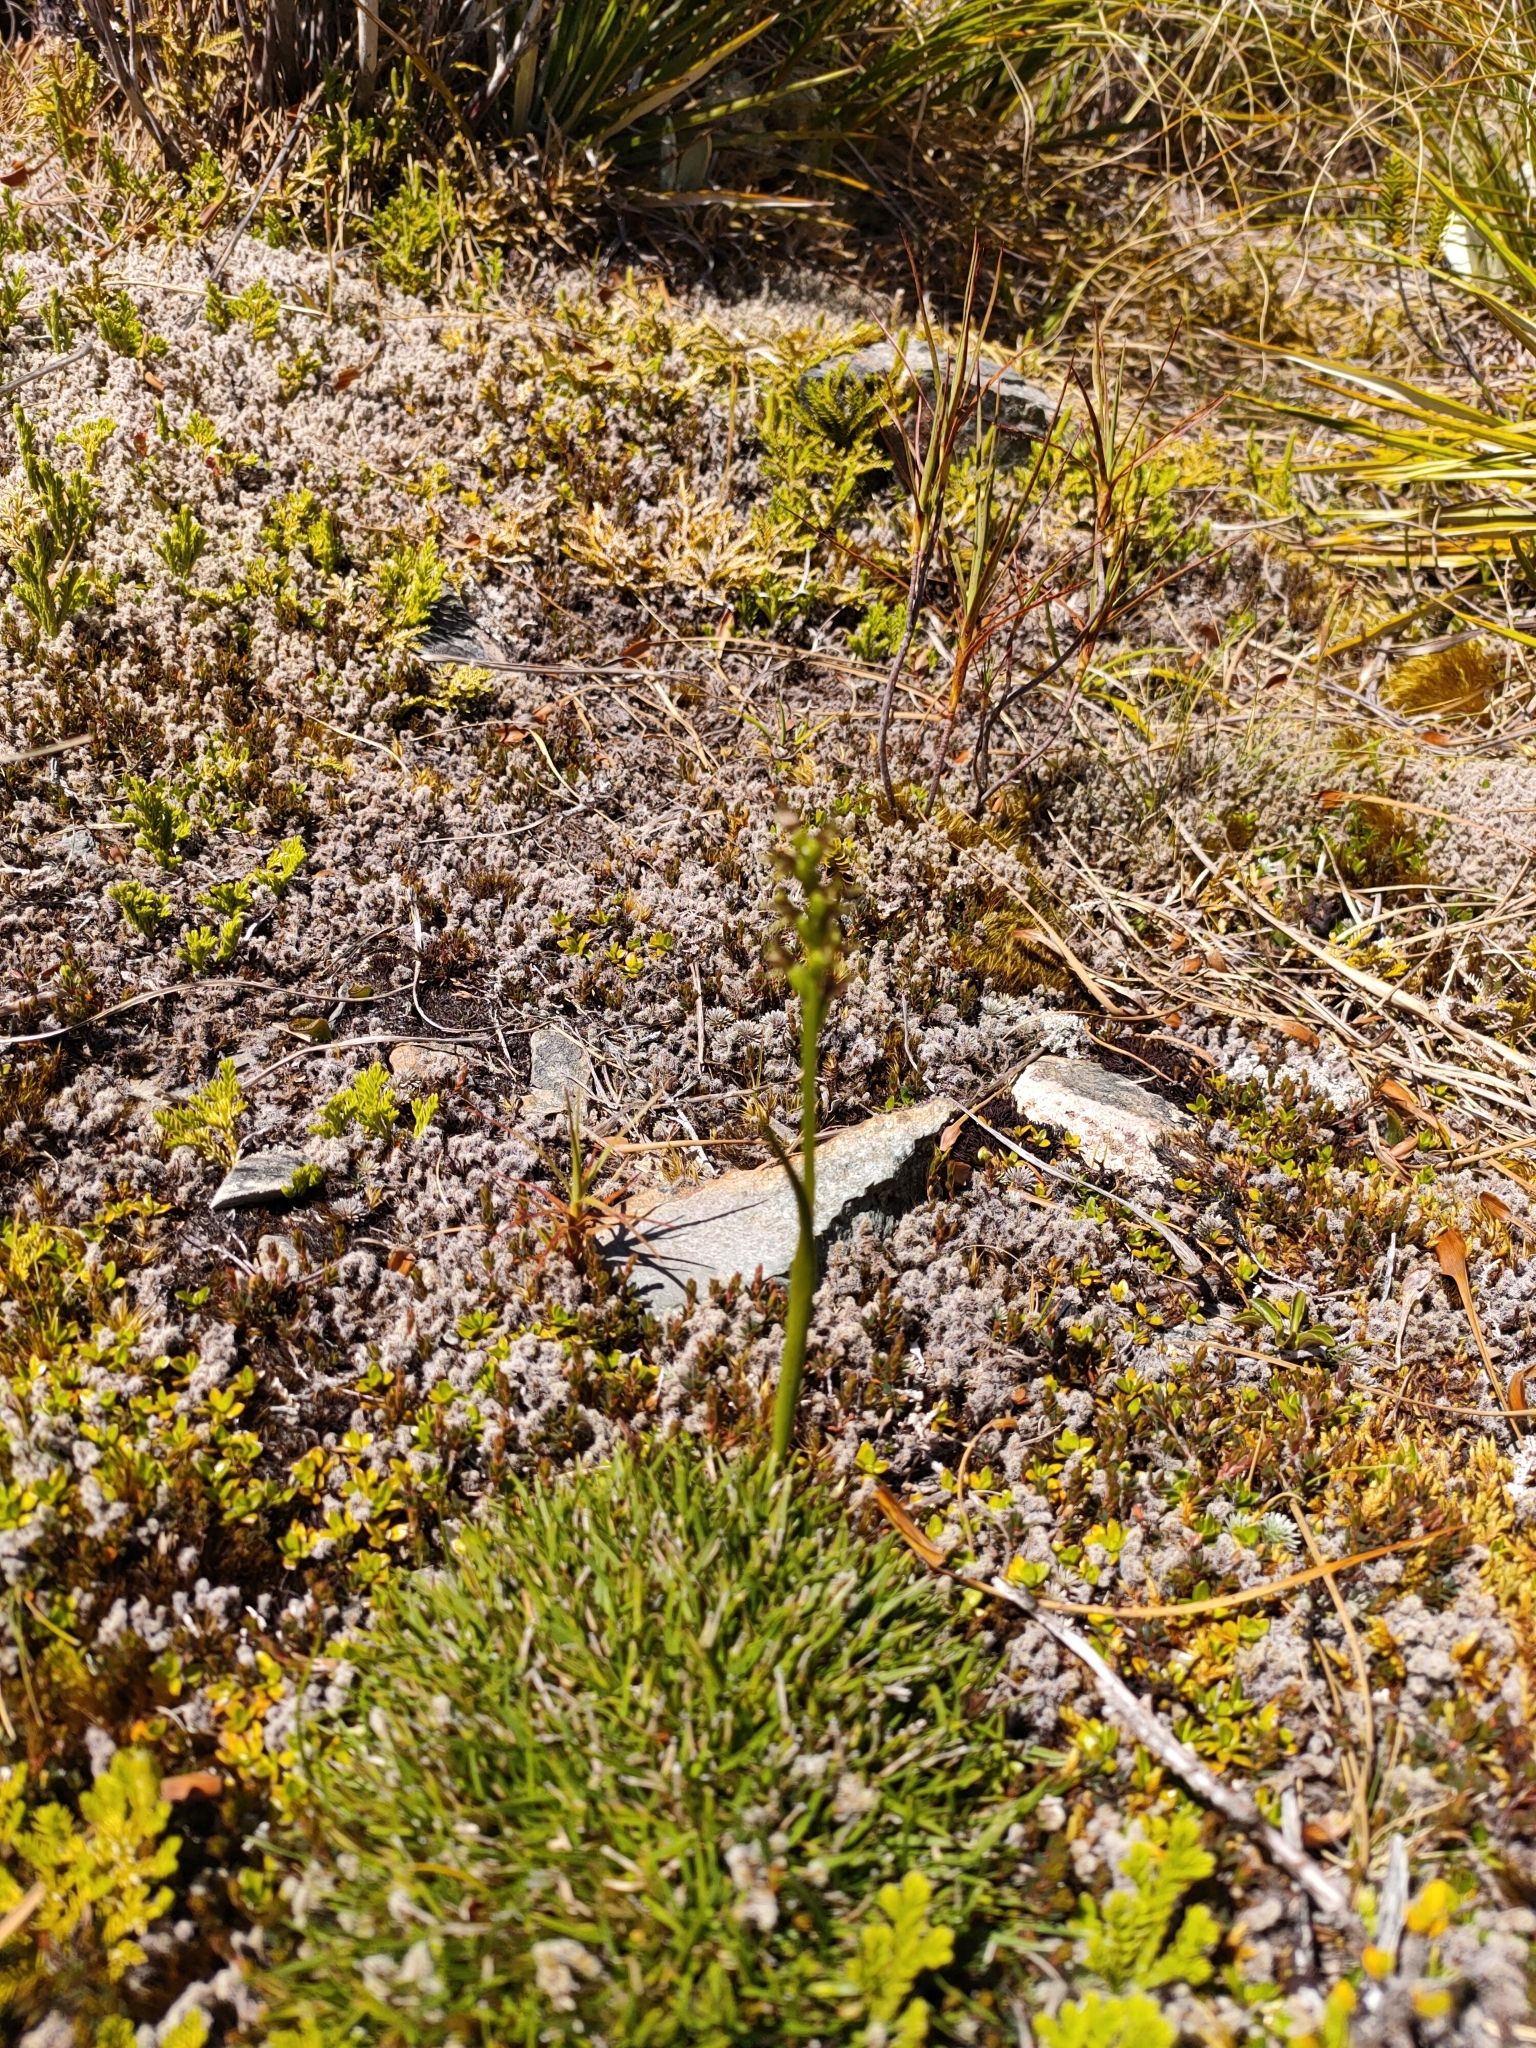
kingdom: Plantae
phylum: Tracheophyta
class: Liliopsida
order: Asparagales
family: Orchidaceae
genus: Prasophyllum
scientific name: Prasophyllum colensoi
